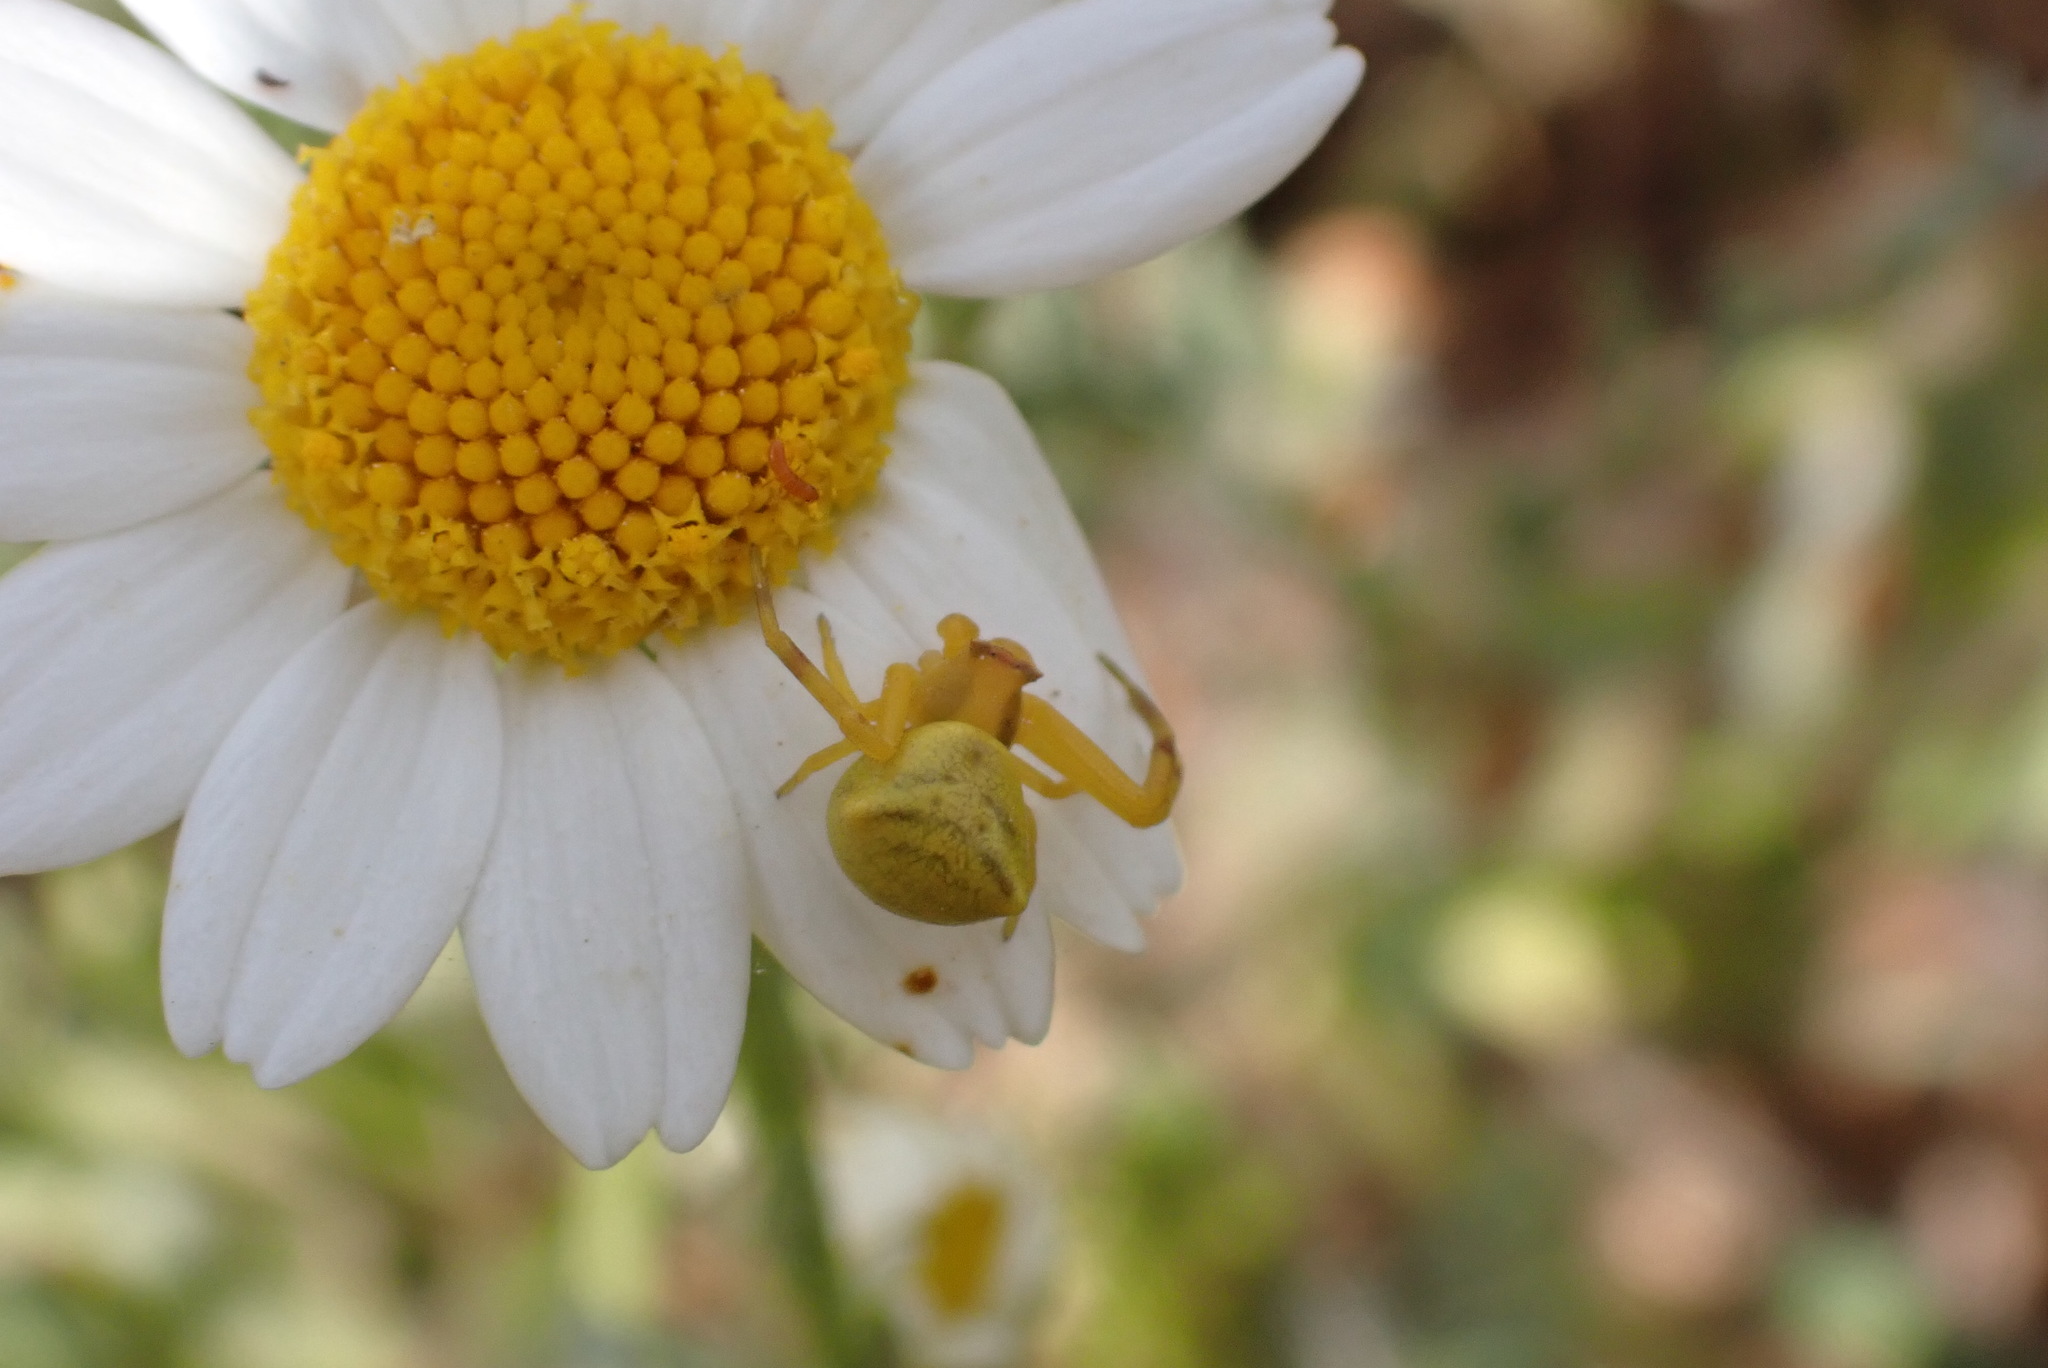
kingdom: Animalia
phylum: Arthropoda
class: Arachnida
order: Araneae
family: Thomisidae
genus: Thomisus
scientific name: Thomisus onustus
